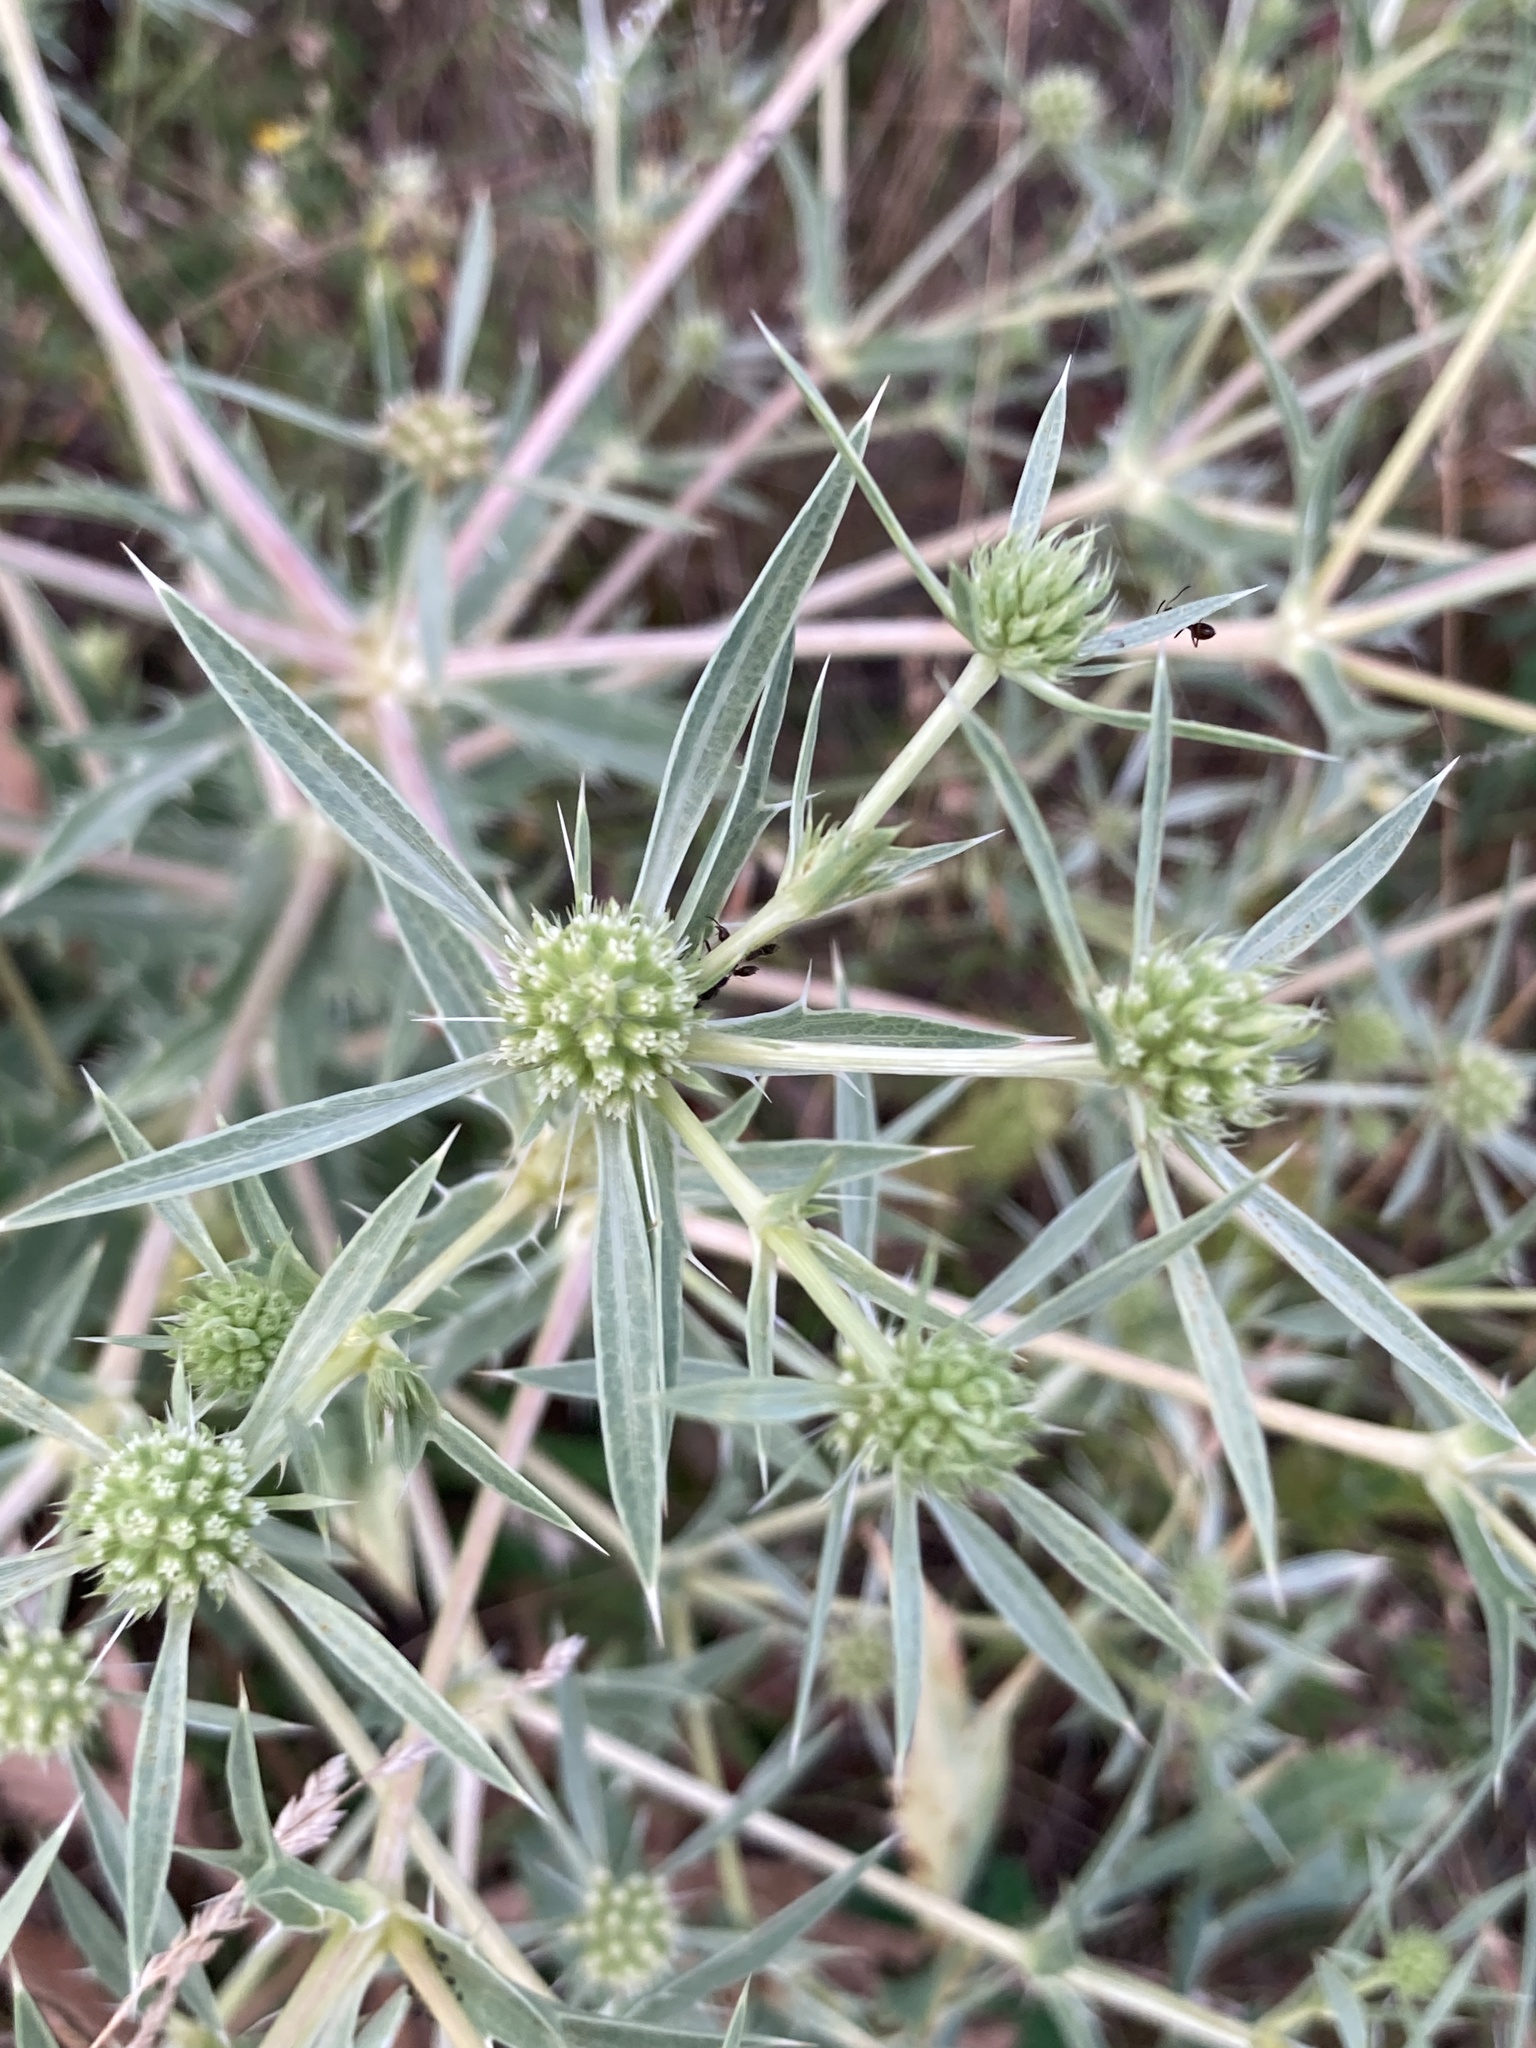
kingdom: Plantae
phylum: Tracheophyta
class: Magnoliopsida
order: Apiales
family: Apiaceae
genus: Eryngium
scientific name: Eryngium campestre
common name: Field eryngo
